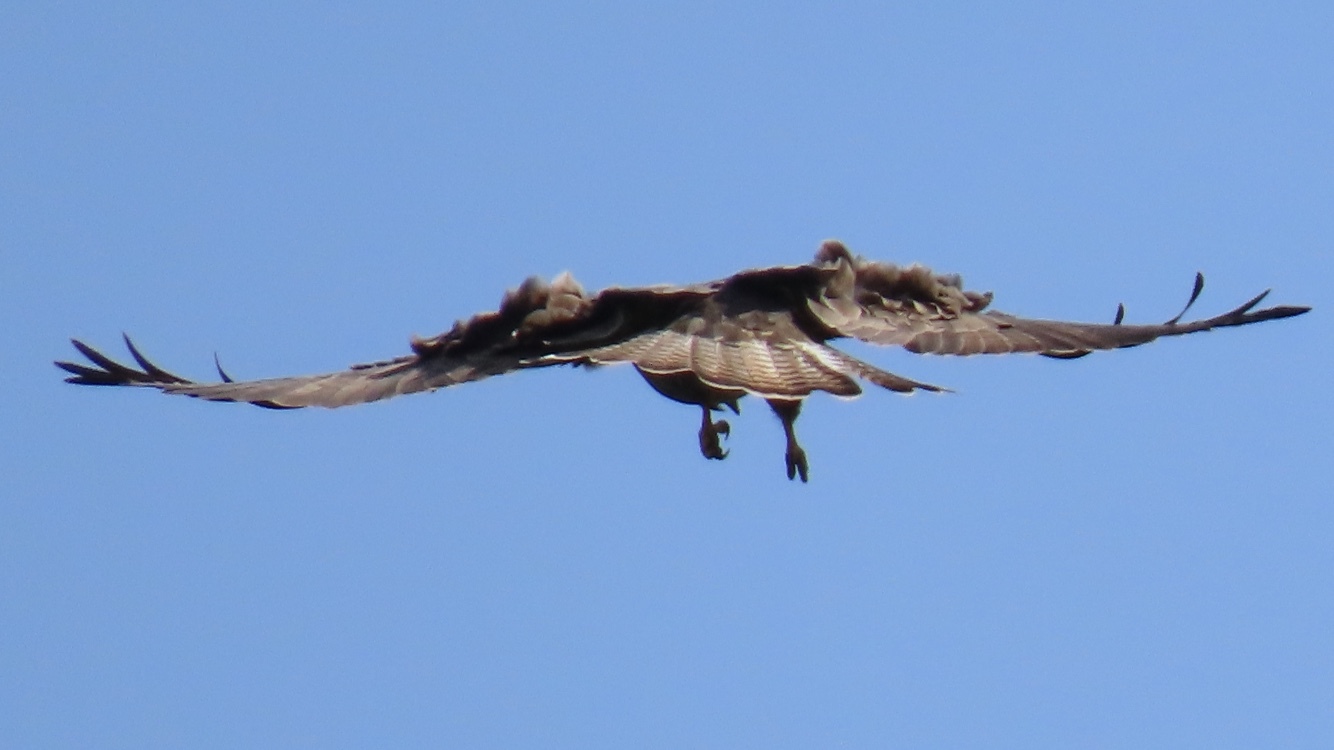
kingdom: Animalia
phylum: Chordata
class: Aves
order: Accipitriformes
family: Accipitridae
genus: Buteo
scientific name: Buteo buteo
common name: Common buzzard
